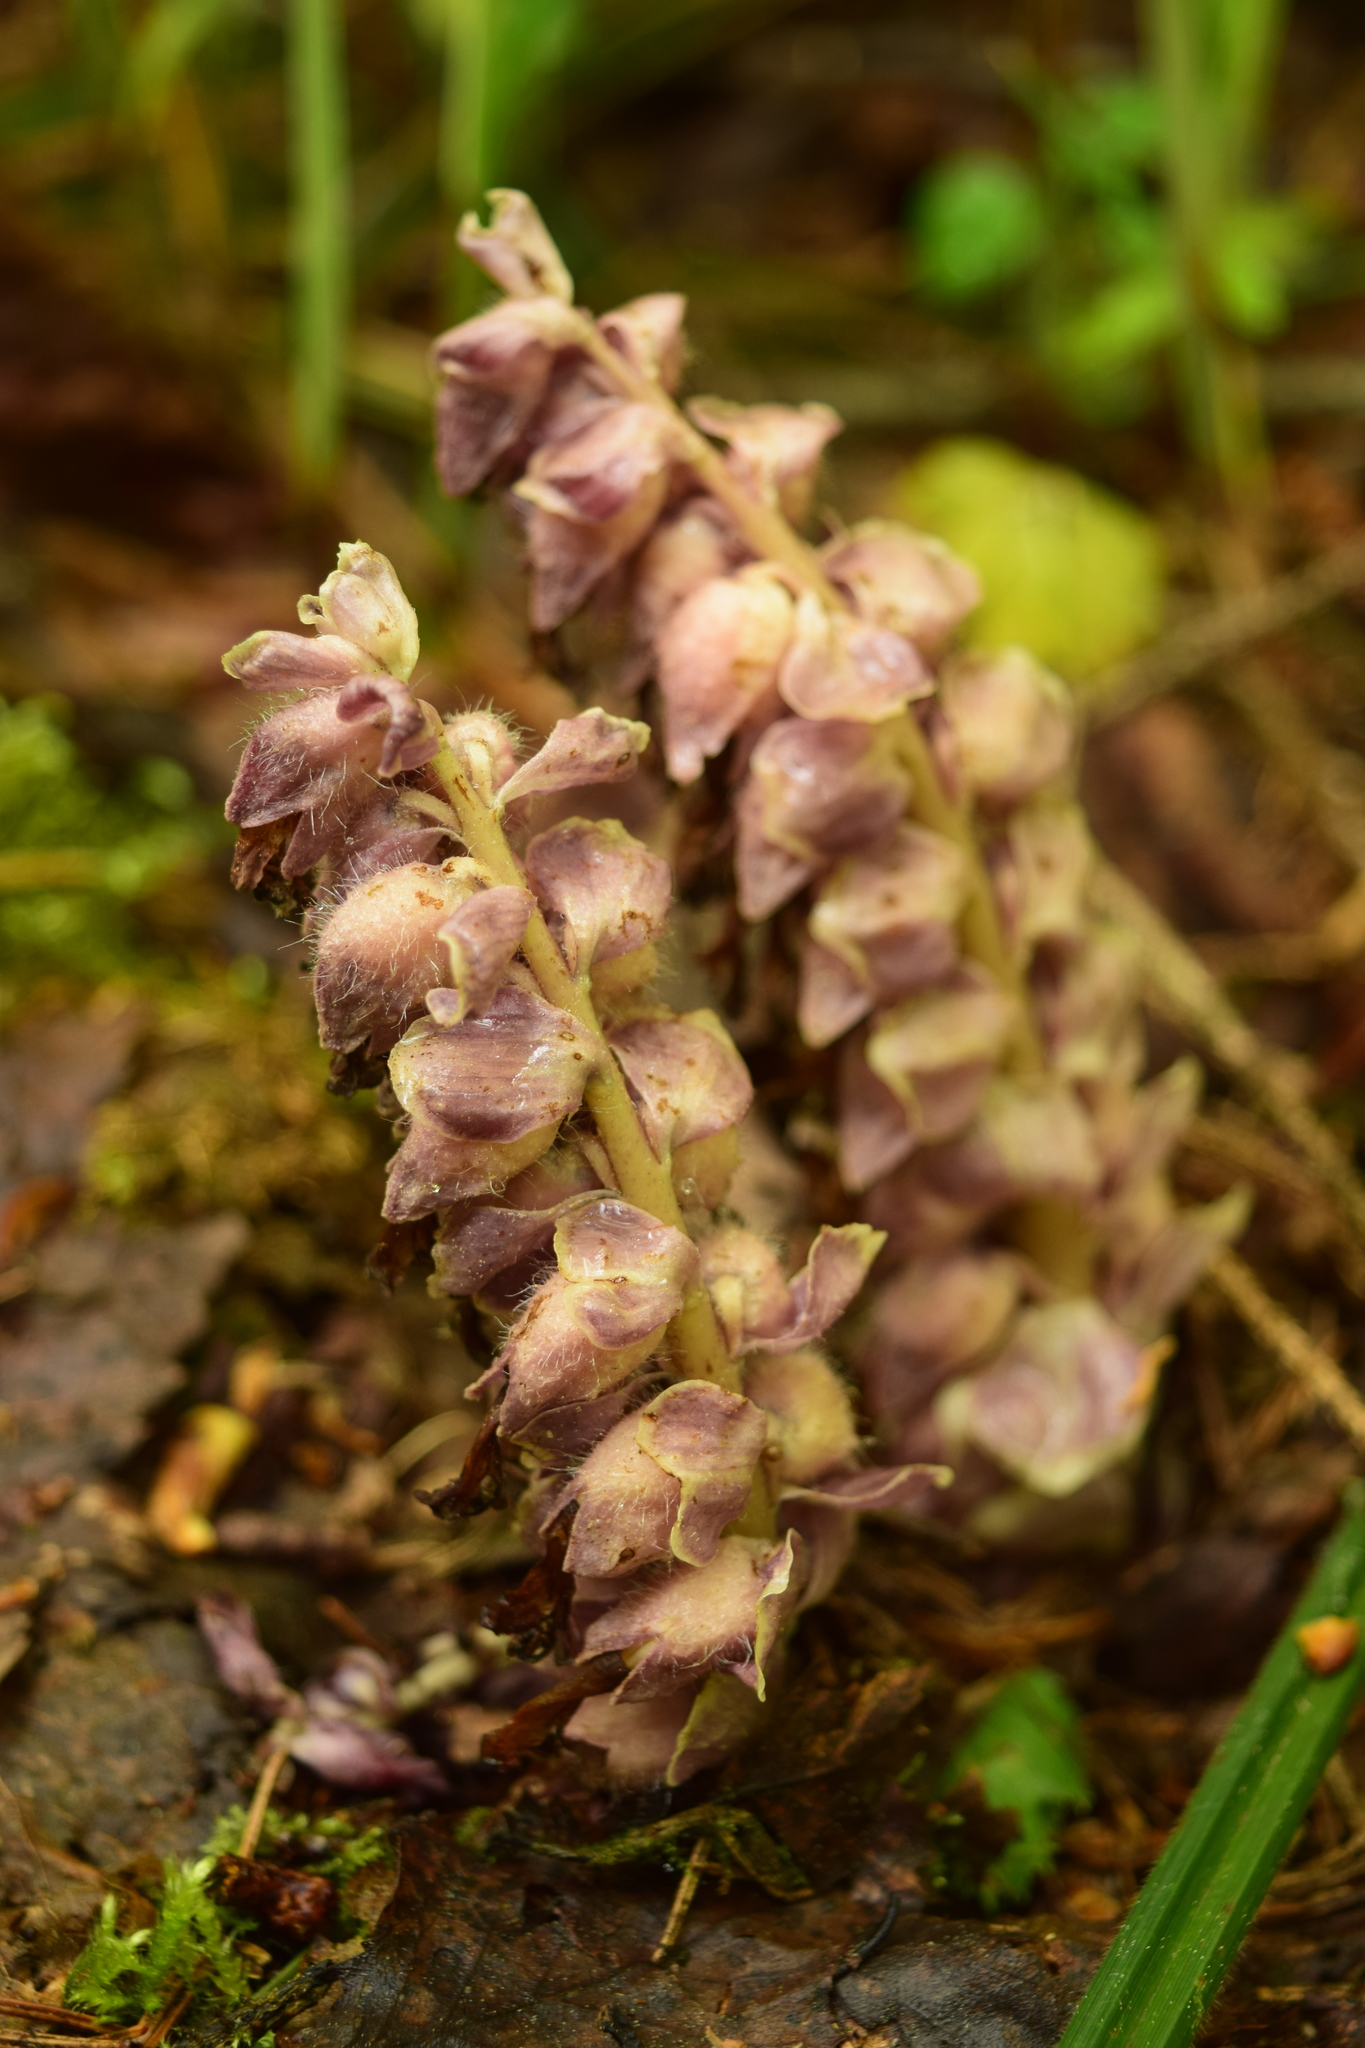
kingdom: Plantae
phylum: Tracheophyta
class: Magnoliopsida
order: Lamiales
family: Orobanchaceae
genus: Lathraea
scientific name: Lathraea squamaria
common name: Toothwort
